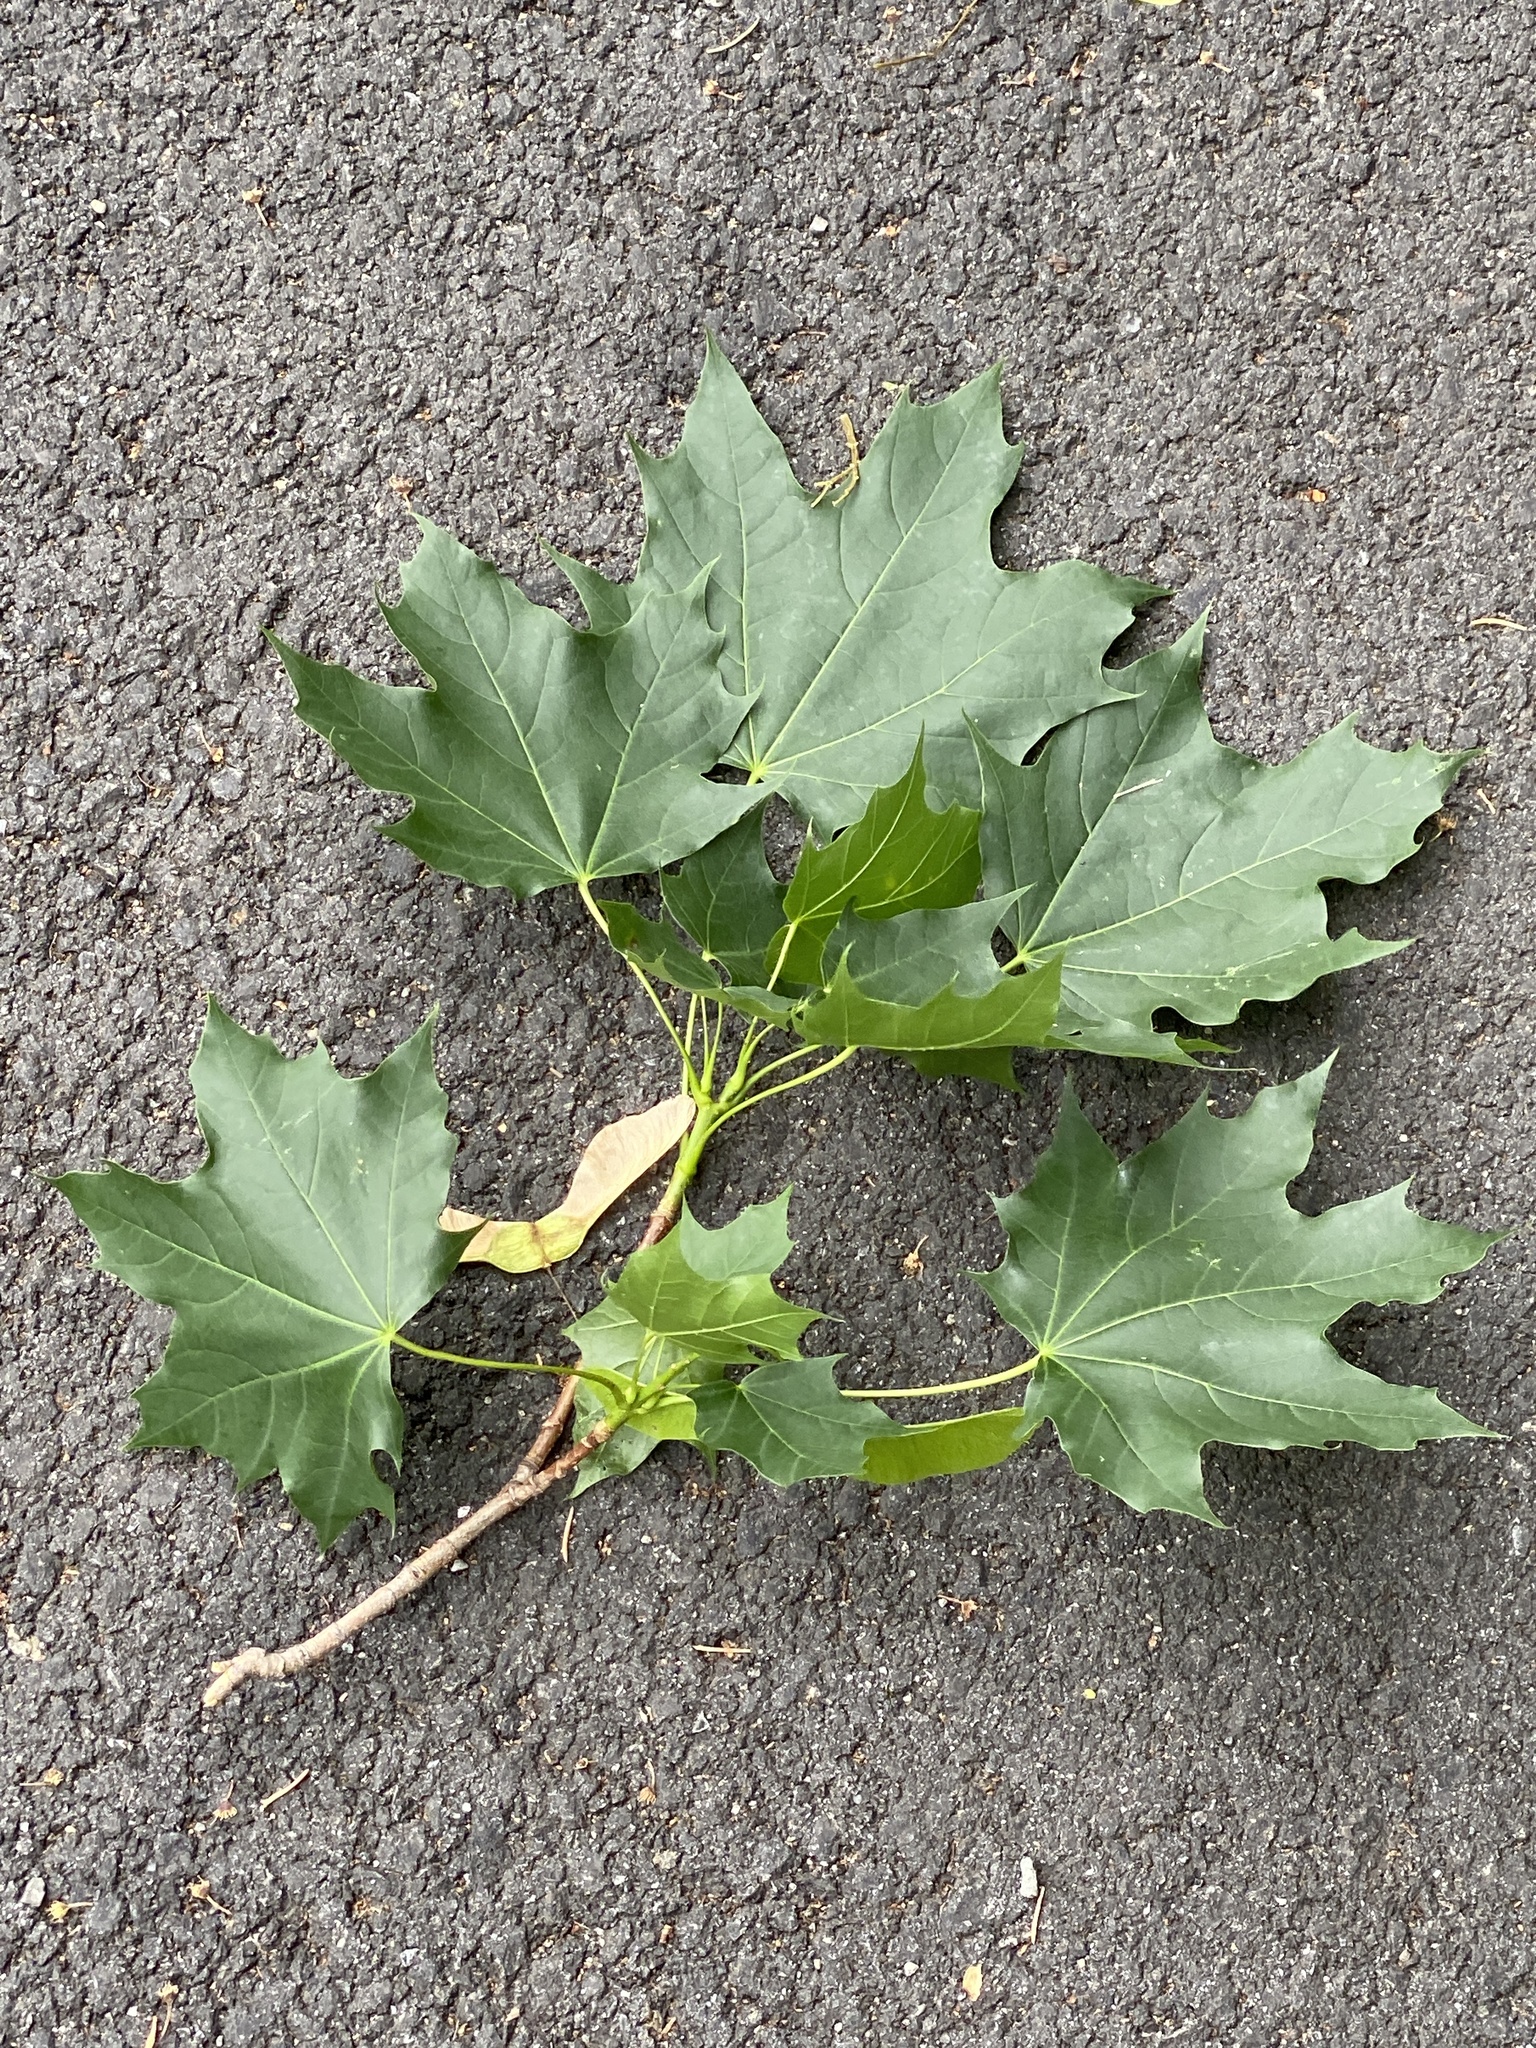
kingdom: Plantae
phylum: Tracheophyta
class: Magnoliopsida
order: Sapindales
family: Sapindaceae
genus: Acer
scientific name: Acer platanoides
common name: Norway maple
